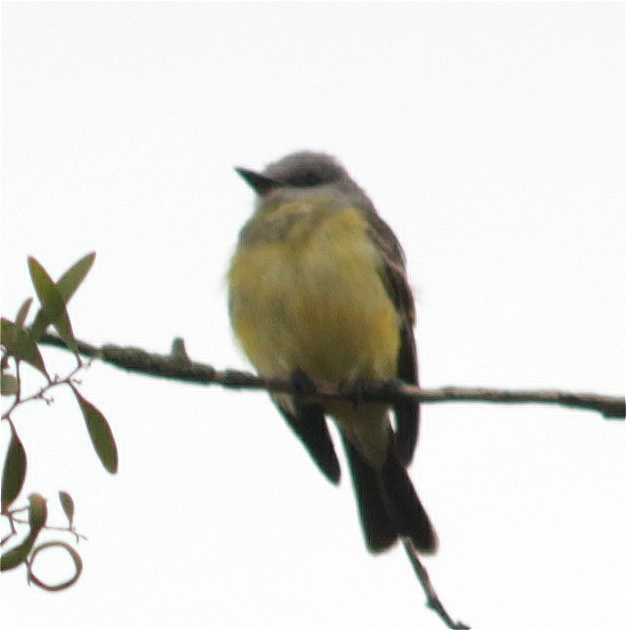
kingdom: Animalia
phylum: Chordata
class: Aves
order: Passeriformes
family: Tyrannidae
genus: Tyrannus
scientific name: Tyrannus melancholicus
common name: Tropical kingbird
